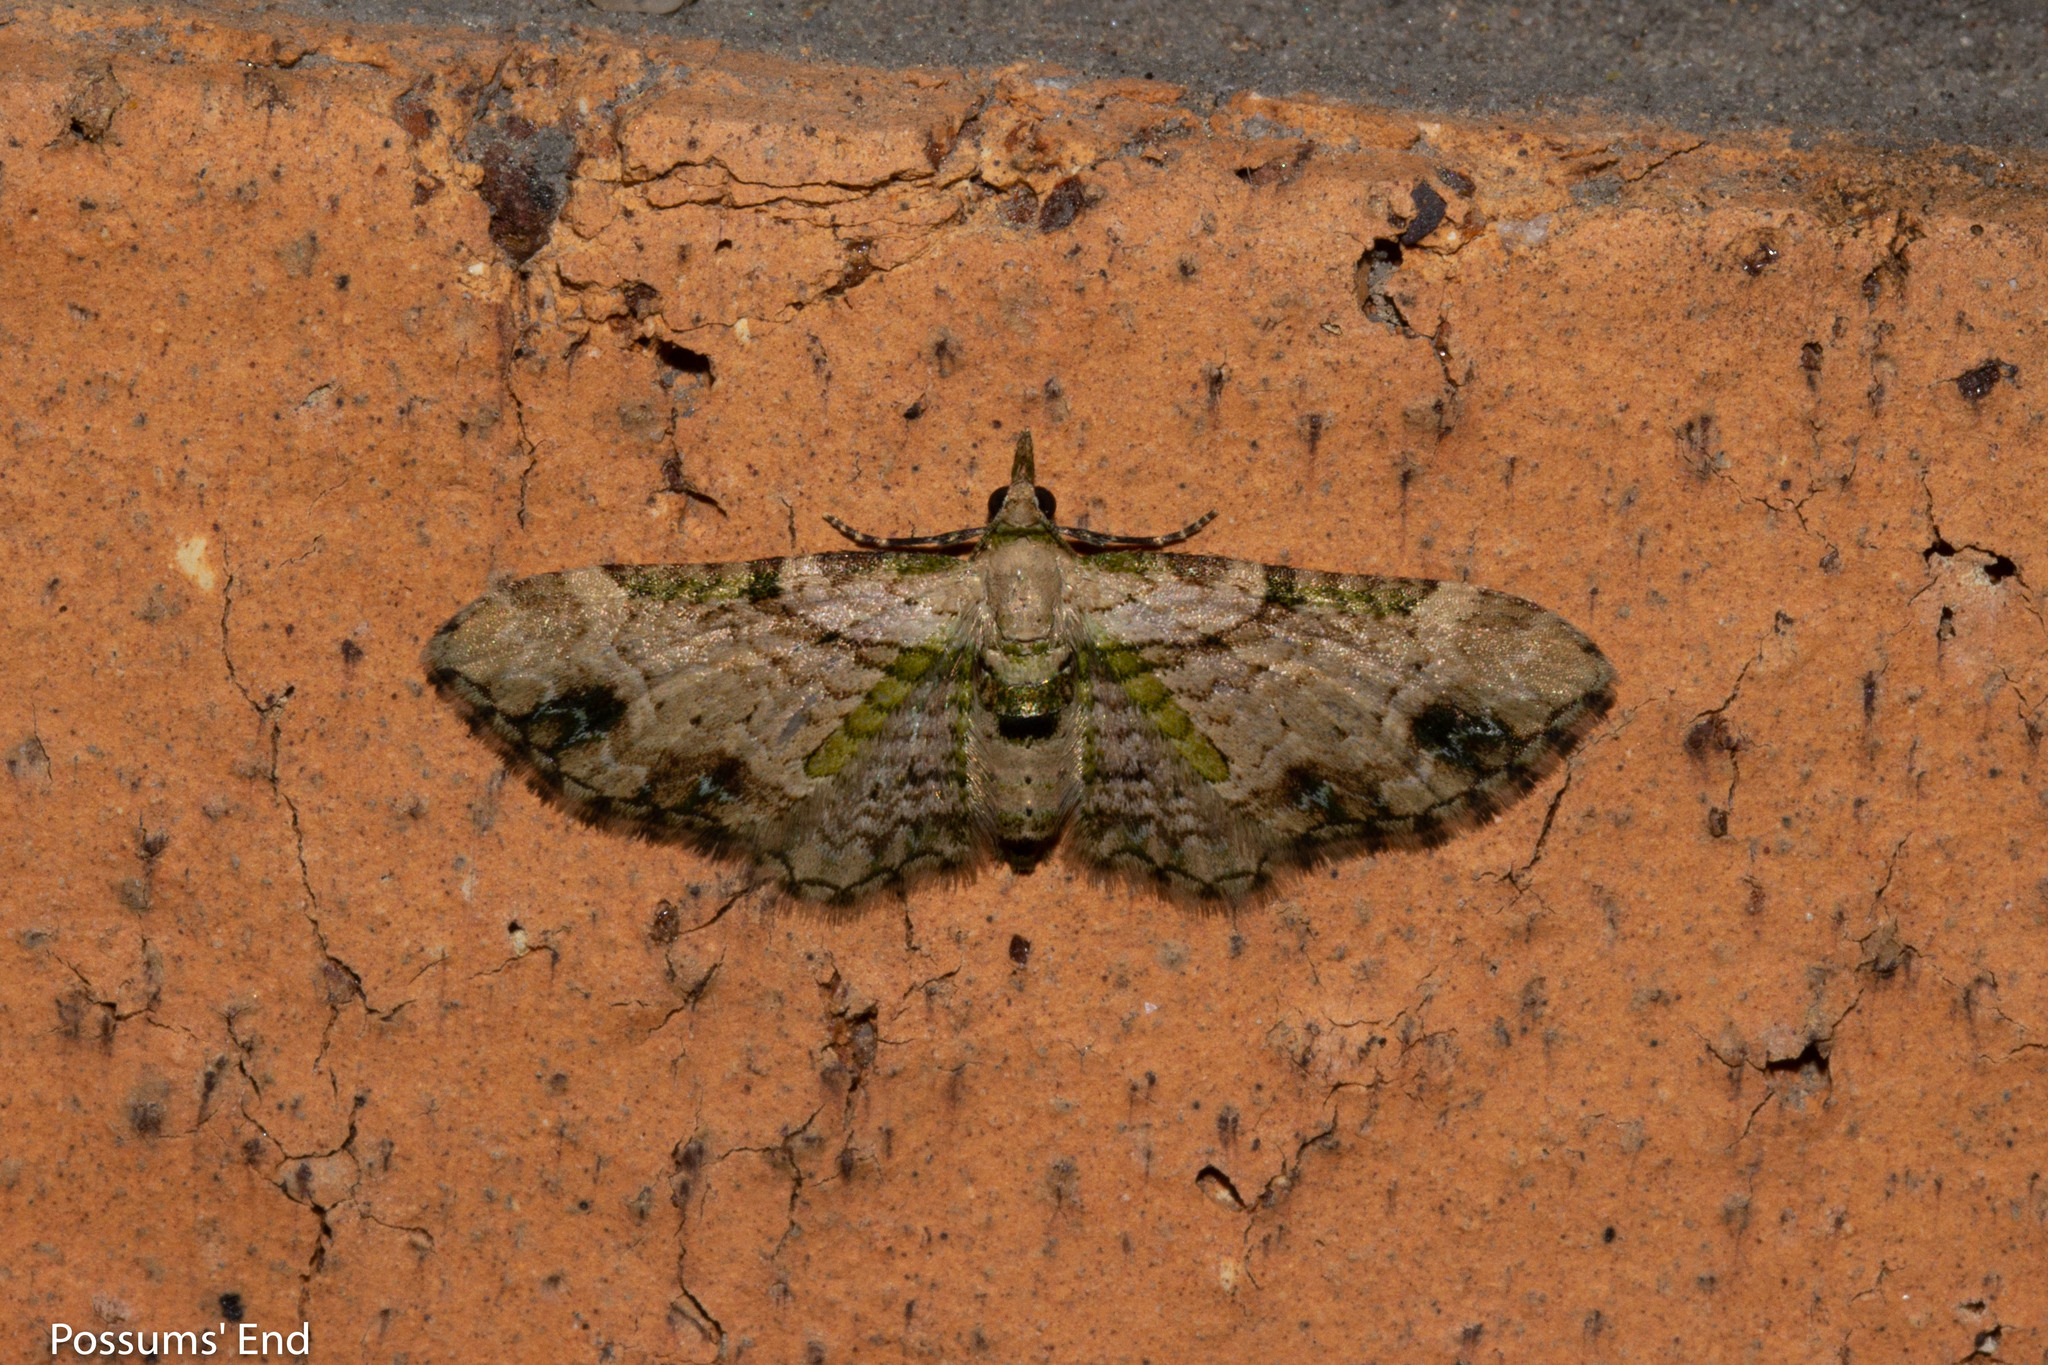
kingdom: Animalia
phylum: Arthropoda
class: Insecta
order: Lepidoptera
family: Geometridae
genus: Chloroclystis
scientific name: Chloroclystis
